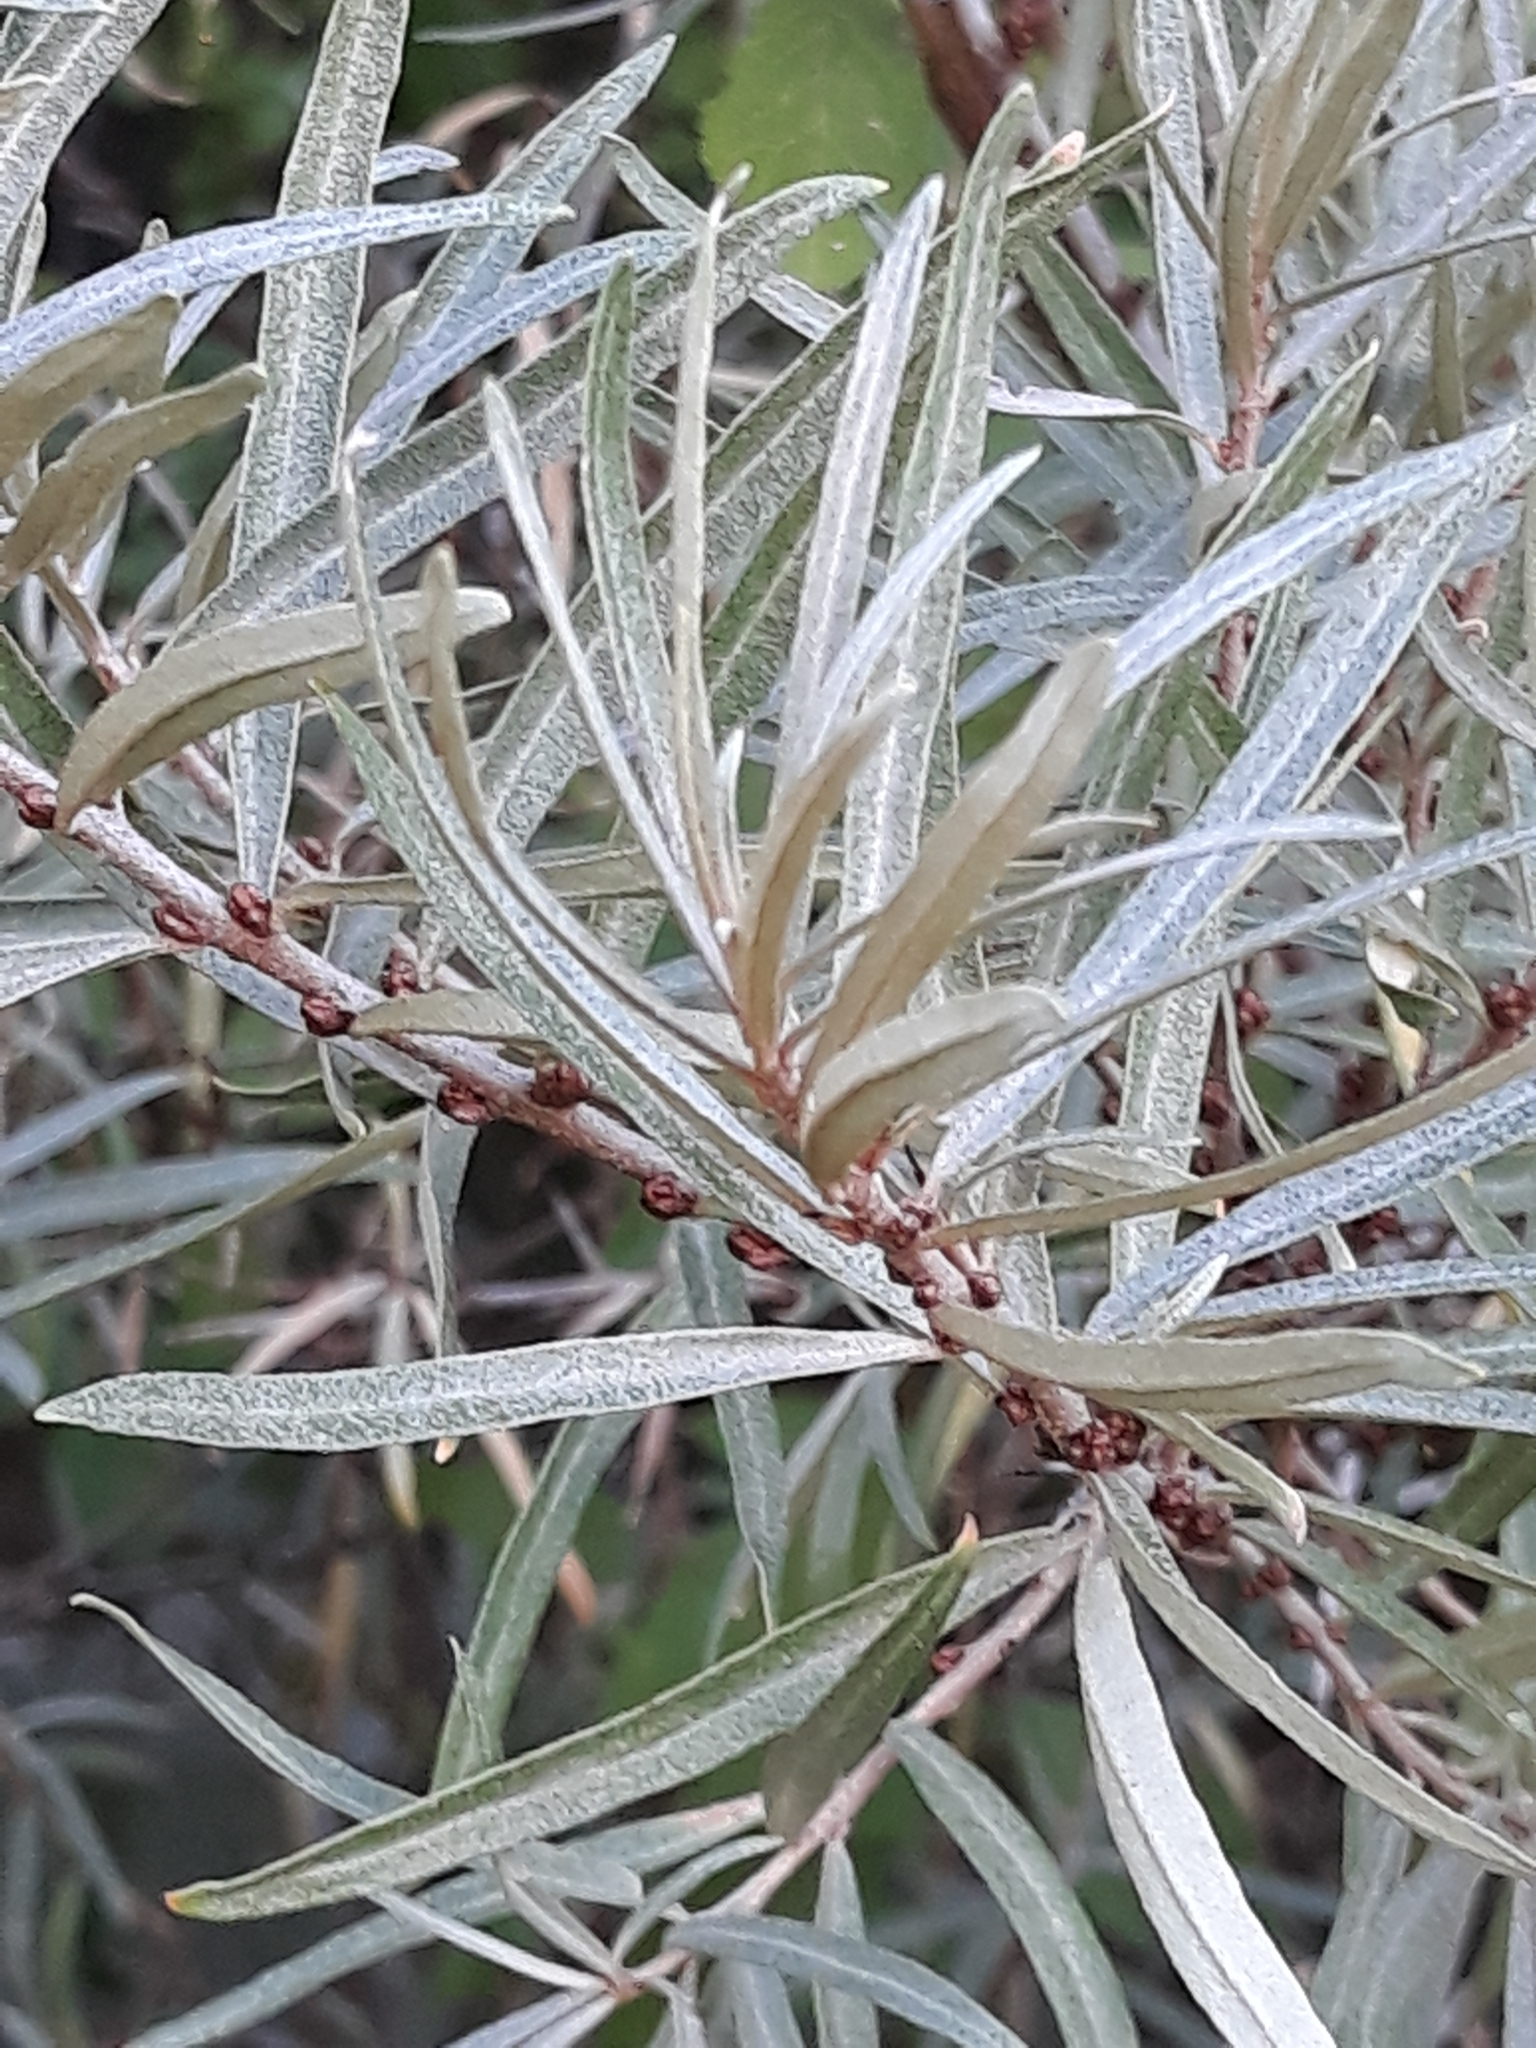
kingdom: Plantae
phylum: Tracheophyta
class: Magnoliopsida
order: Rosales
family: Elaeagnaceae
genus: Hippophae
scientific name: Hippophae rhamnoides
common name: Sea-buckthorn
